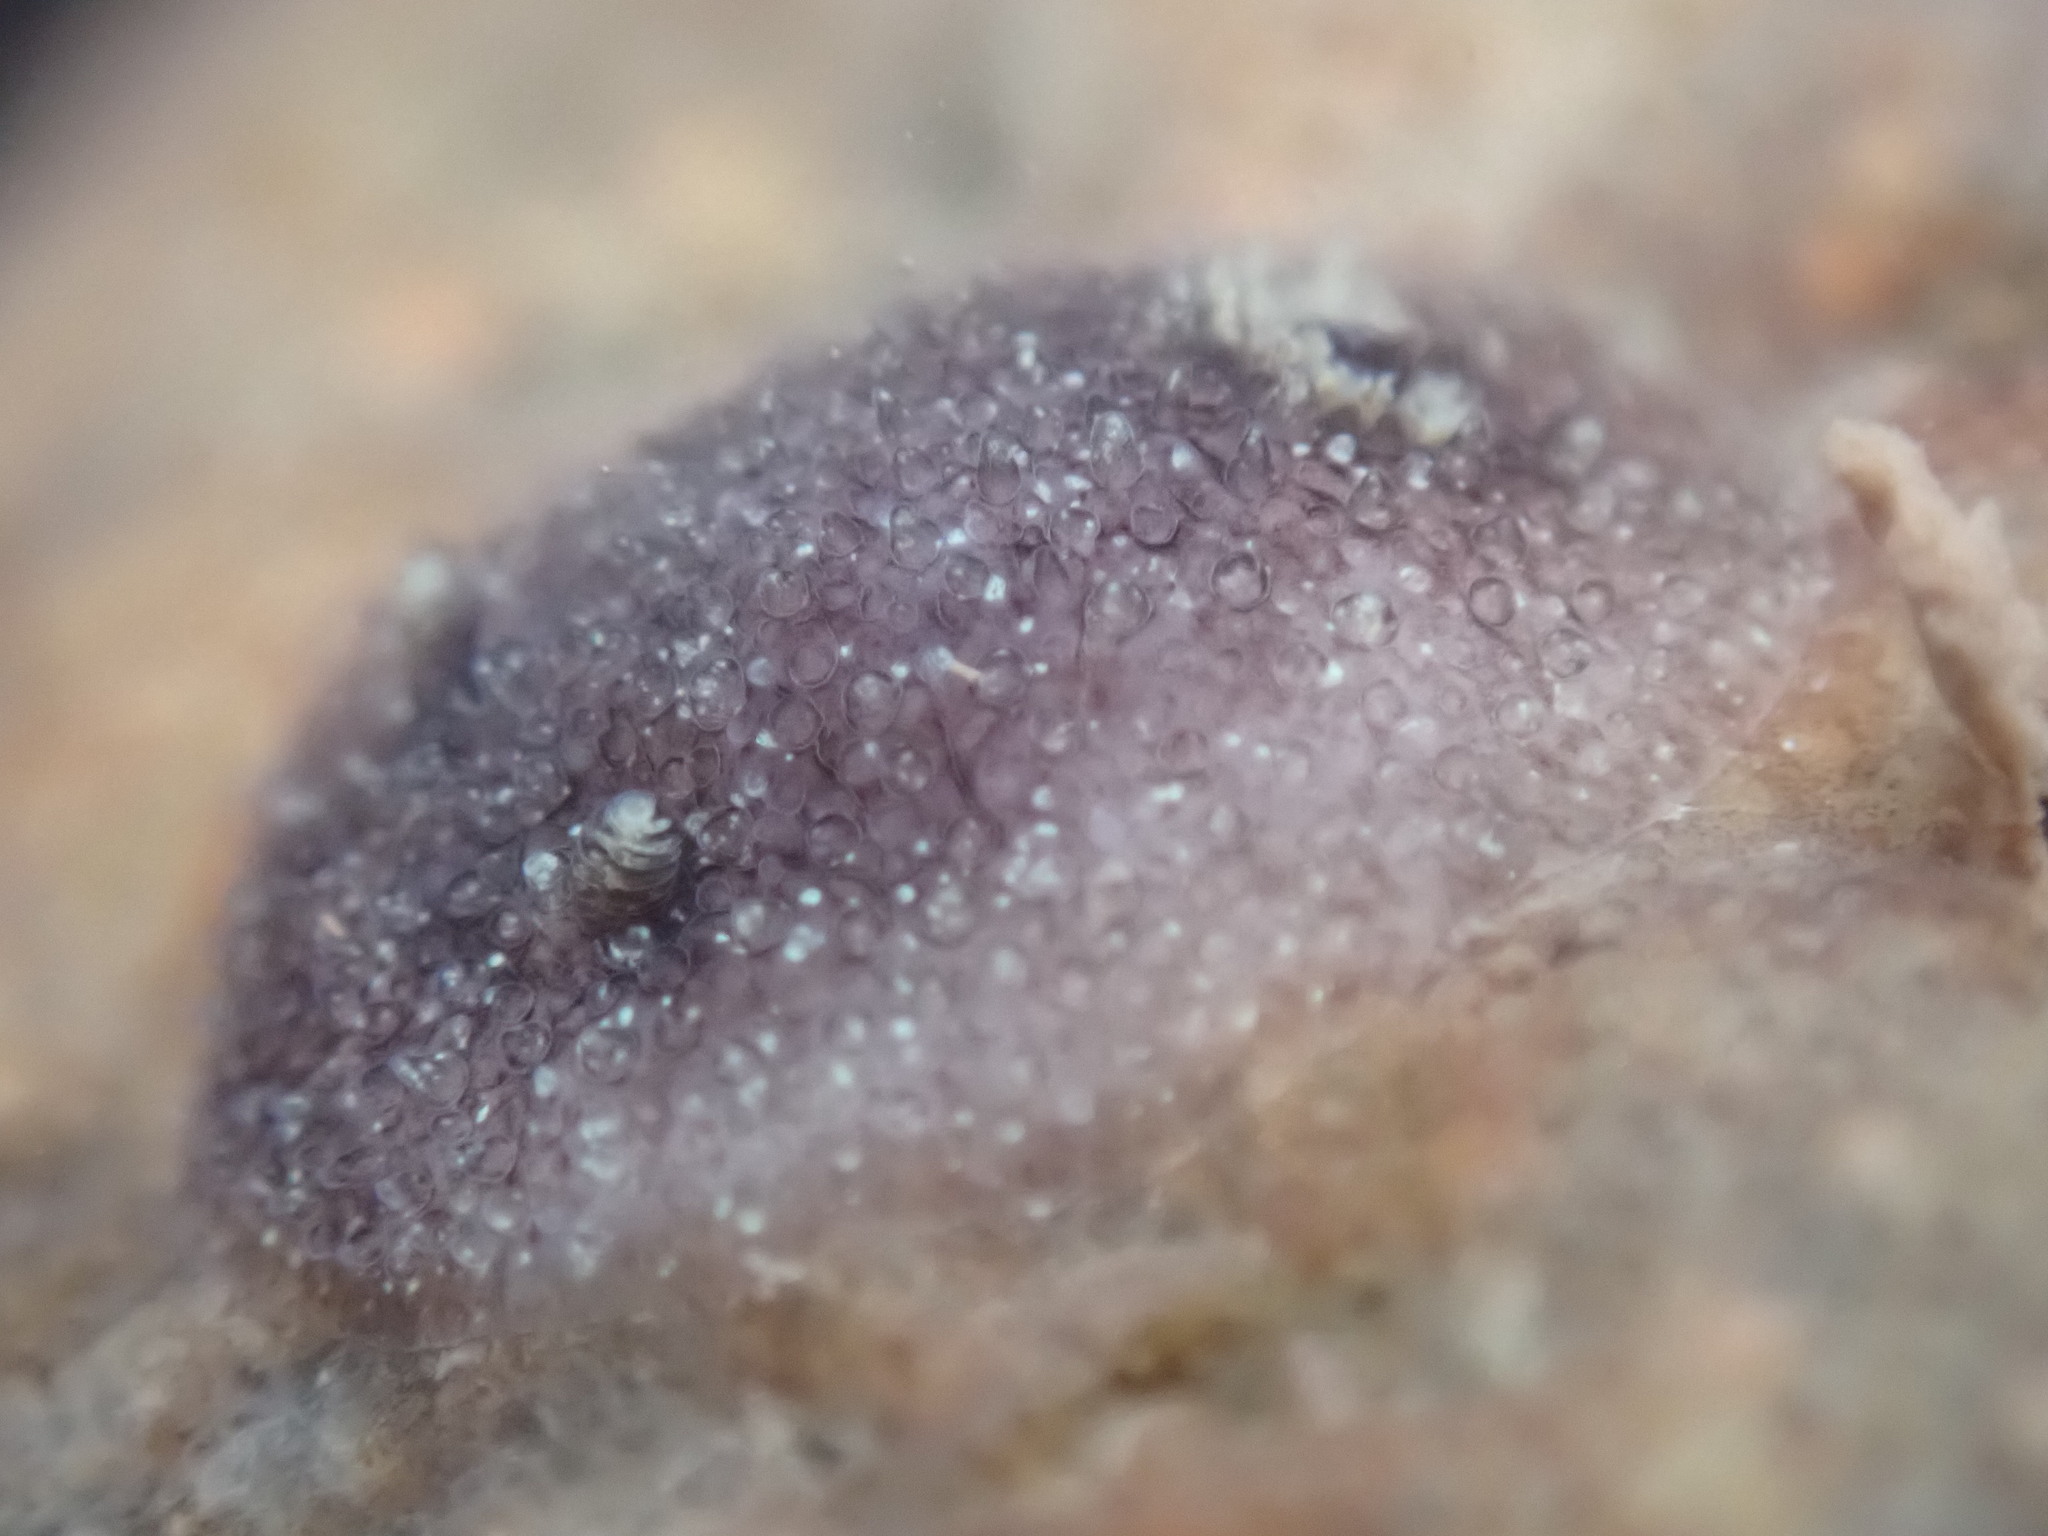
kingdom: Animalia
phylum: Mollusca
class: Gastropoda
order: Nudibranchia
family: Onchidorididae
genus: Onchidoris
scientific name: Onchidoris bilamellata
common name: Barnacle-eating onchidoris
